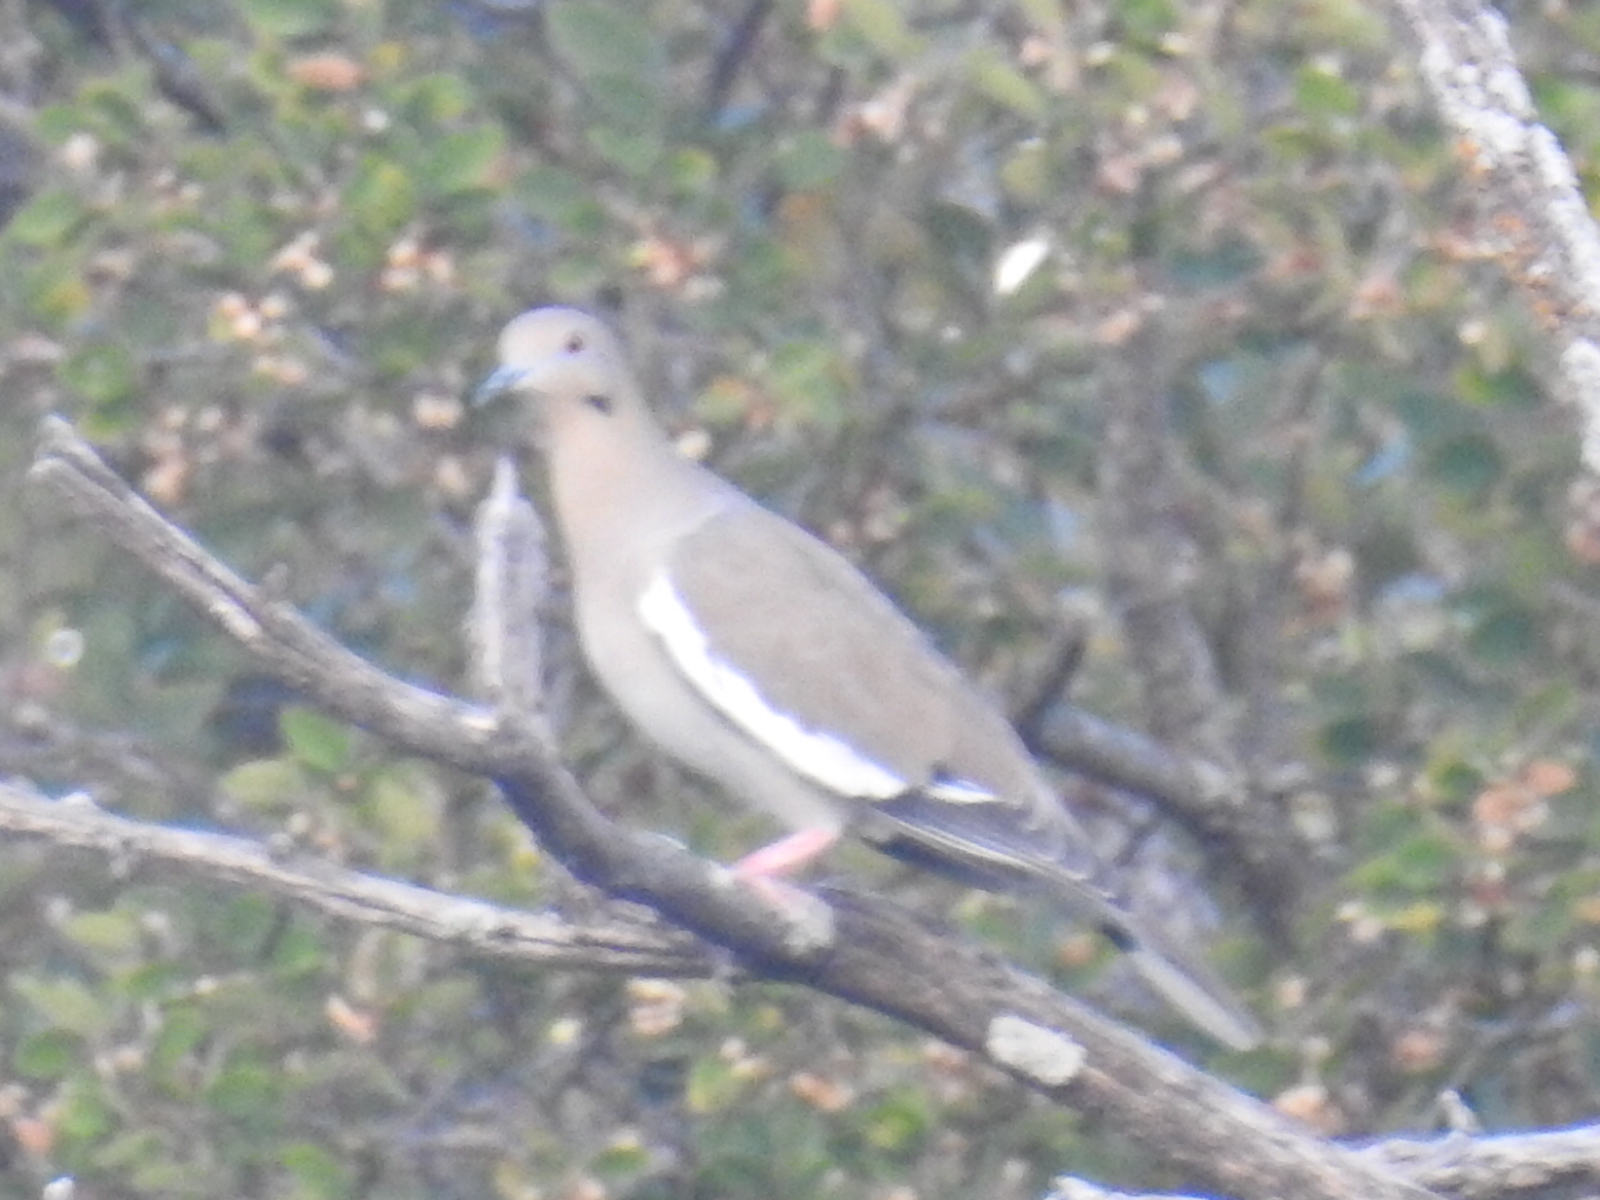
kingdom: Animalia
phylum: Chordata
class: Aves
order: Columbiformes
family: Columbidae
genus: Zenaida
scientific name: Zenaida asiatica
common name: White-winged dove
